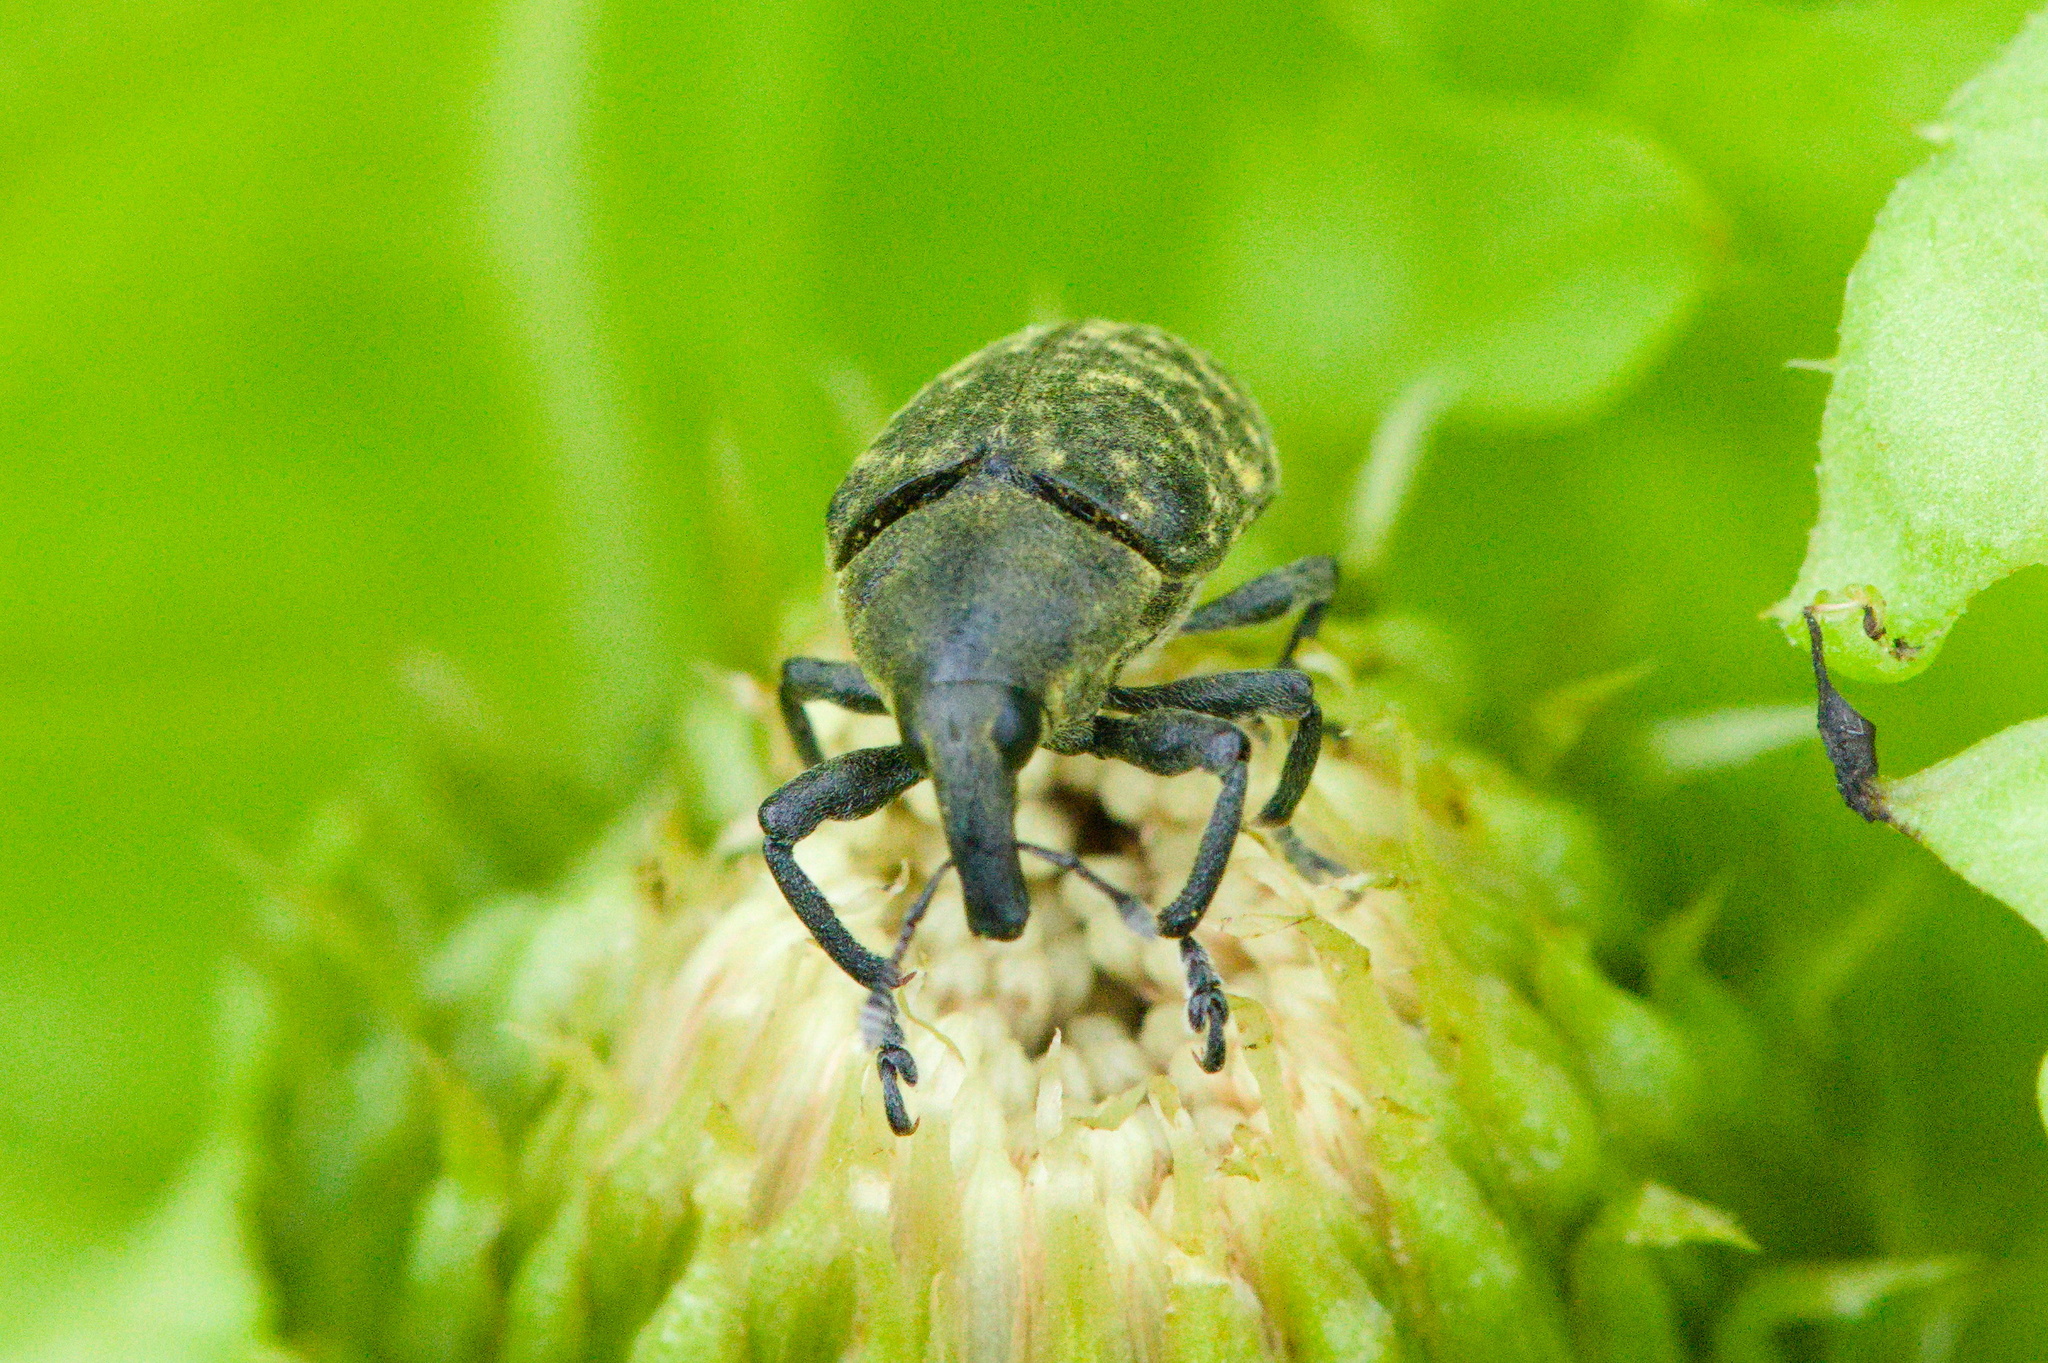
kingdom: Animalia
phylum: Arthropoda
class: Insecta
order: Coleoptera
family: Curculionidae
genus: Larinus
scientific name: Larinus turbinatus
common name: Weevil
